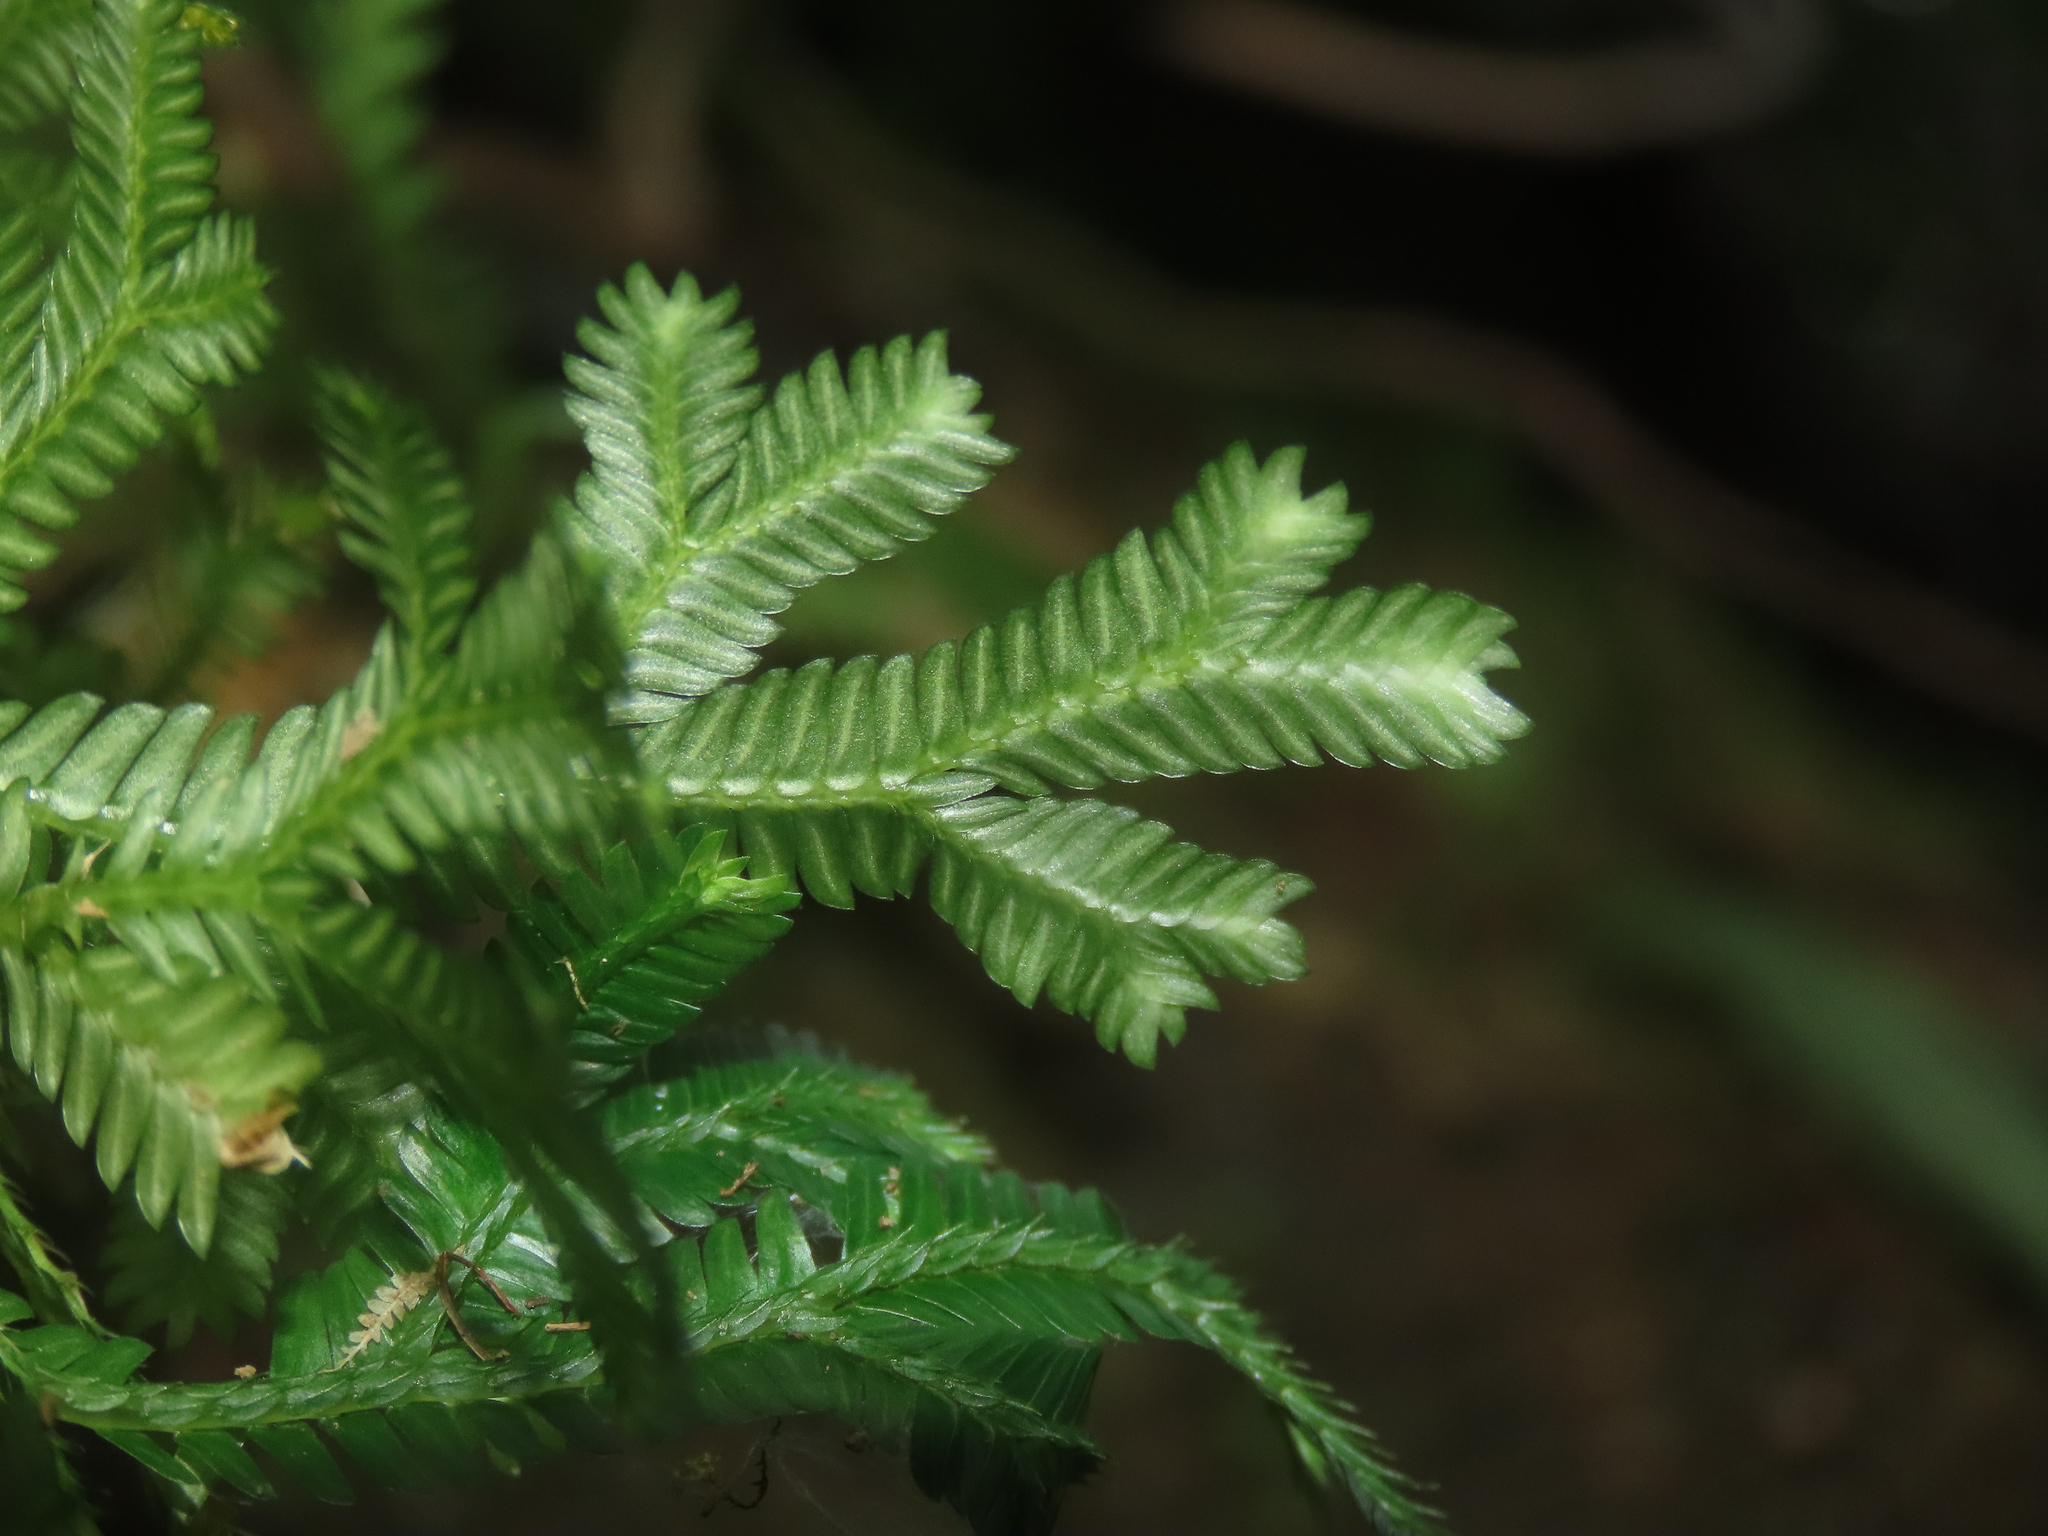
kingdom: Plantae
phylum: Tracheophyta
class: Lycopodiopsida
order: Selaginellales
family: Selaginellaceae
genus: Selaginella
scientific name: Selaginella doederleinii
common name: Greater selaginella
